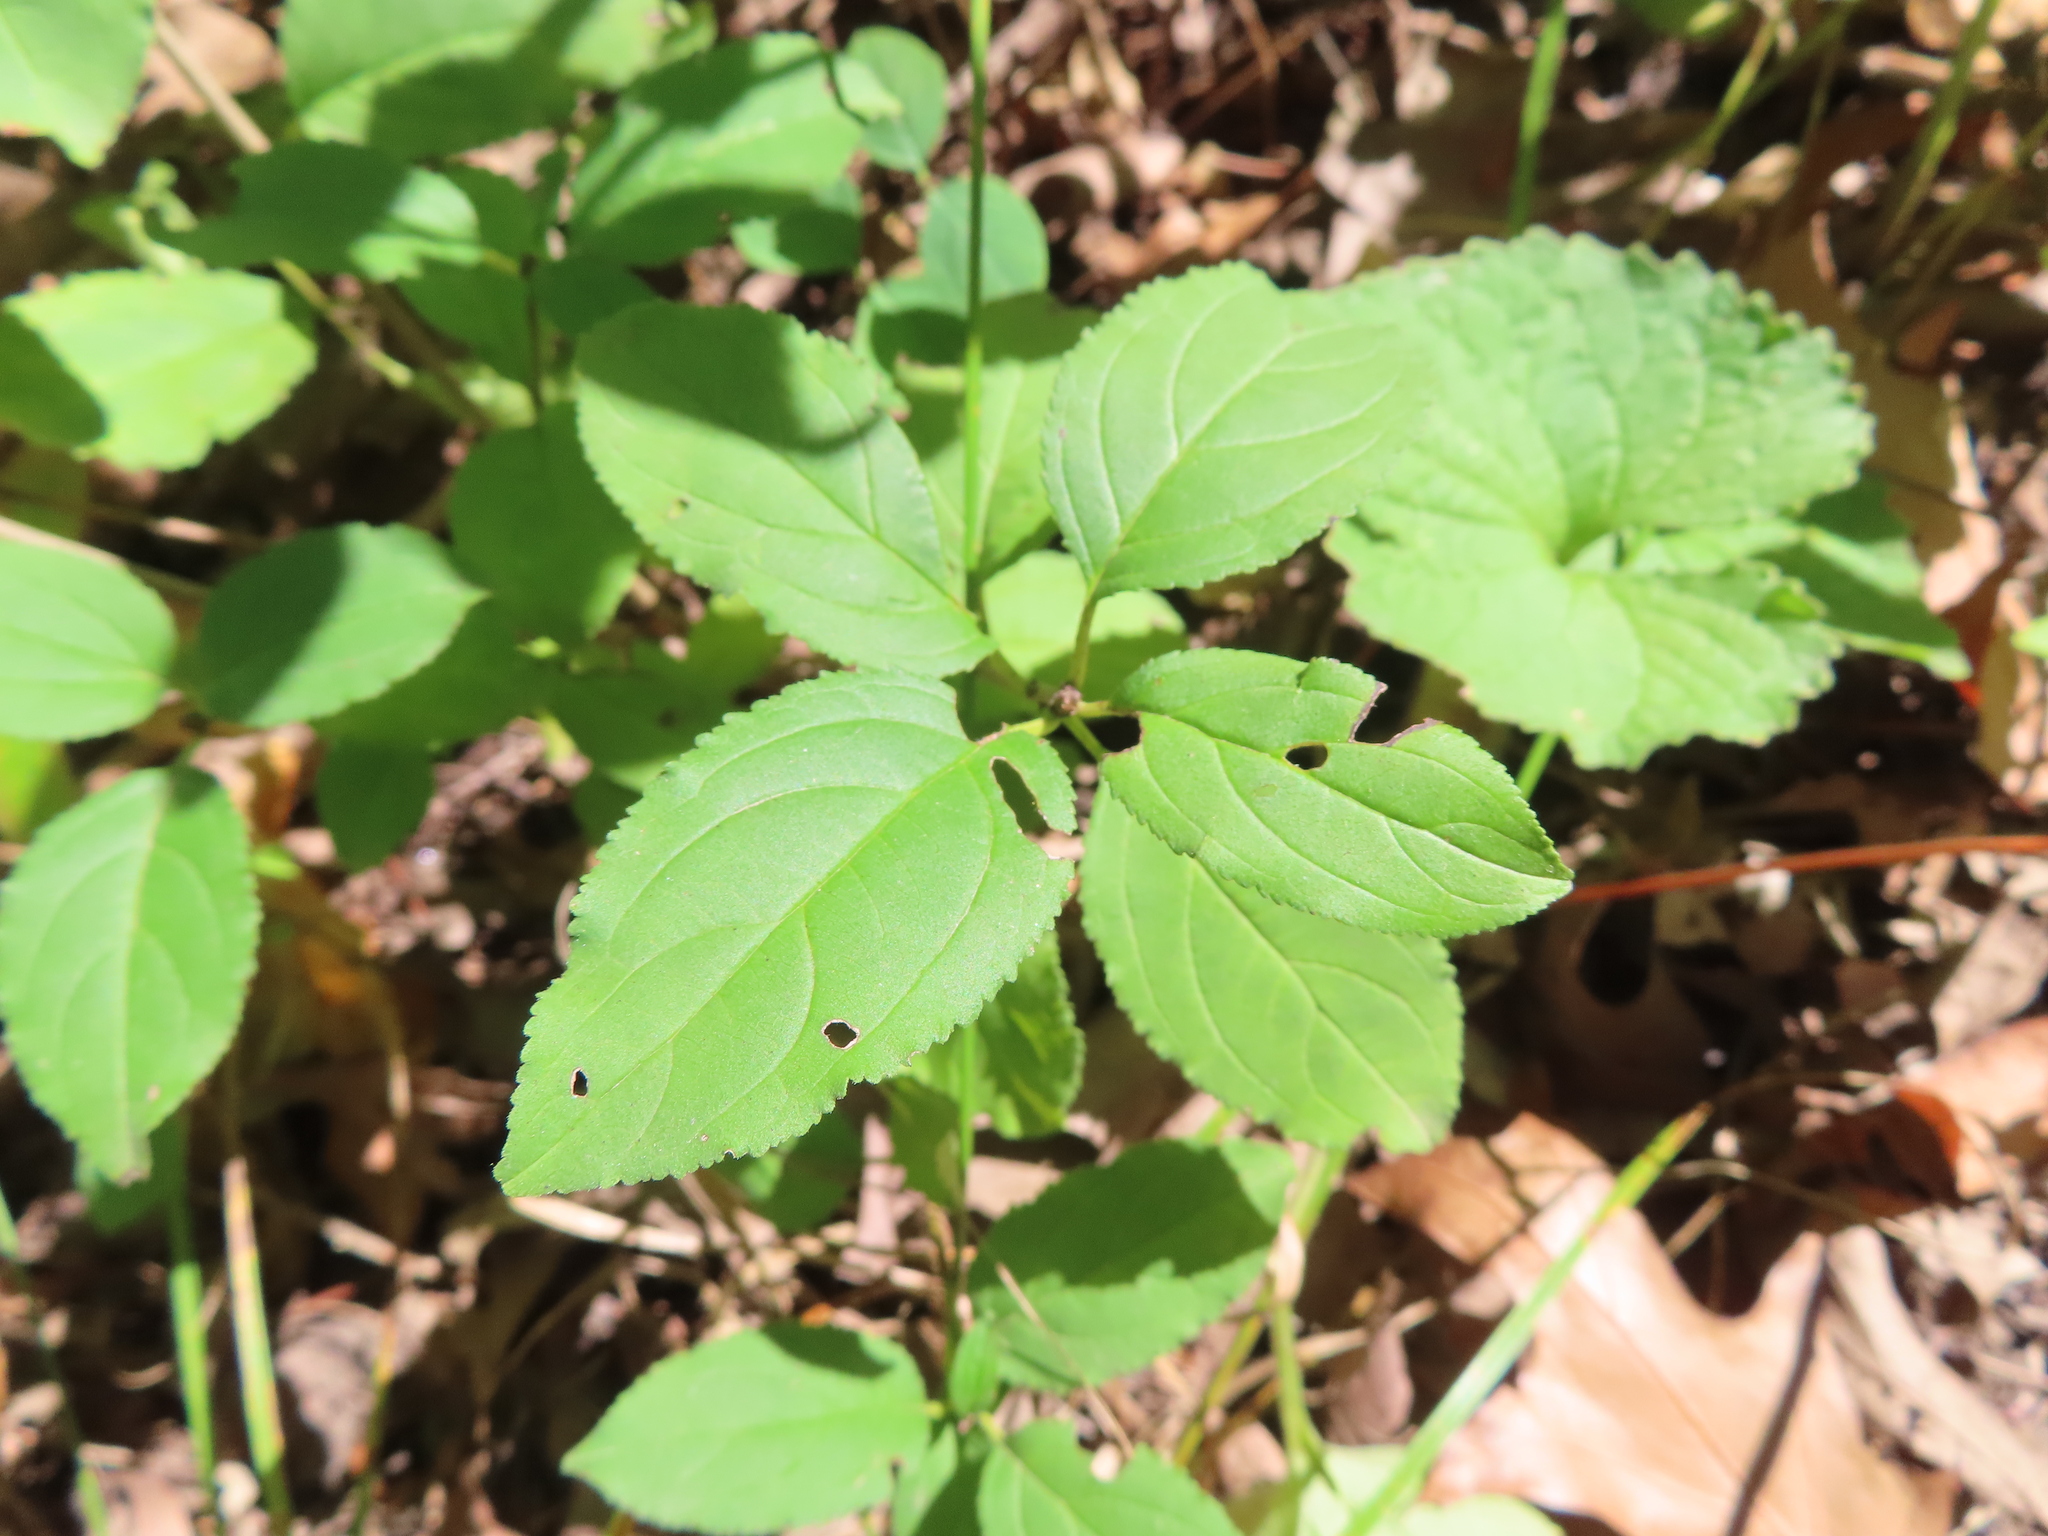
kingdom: Plantae
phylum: Tracheophyta
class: Magnoliopsida
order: Rosales
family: Rhamnaceae
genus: Rhamnus
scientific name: Rhamnus cathartica
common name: Common buckthorn
